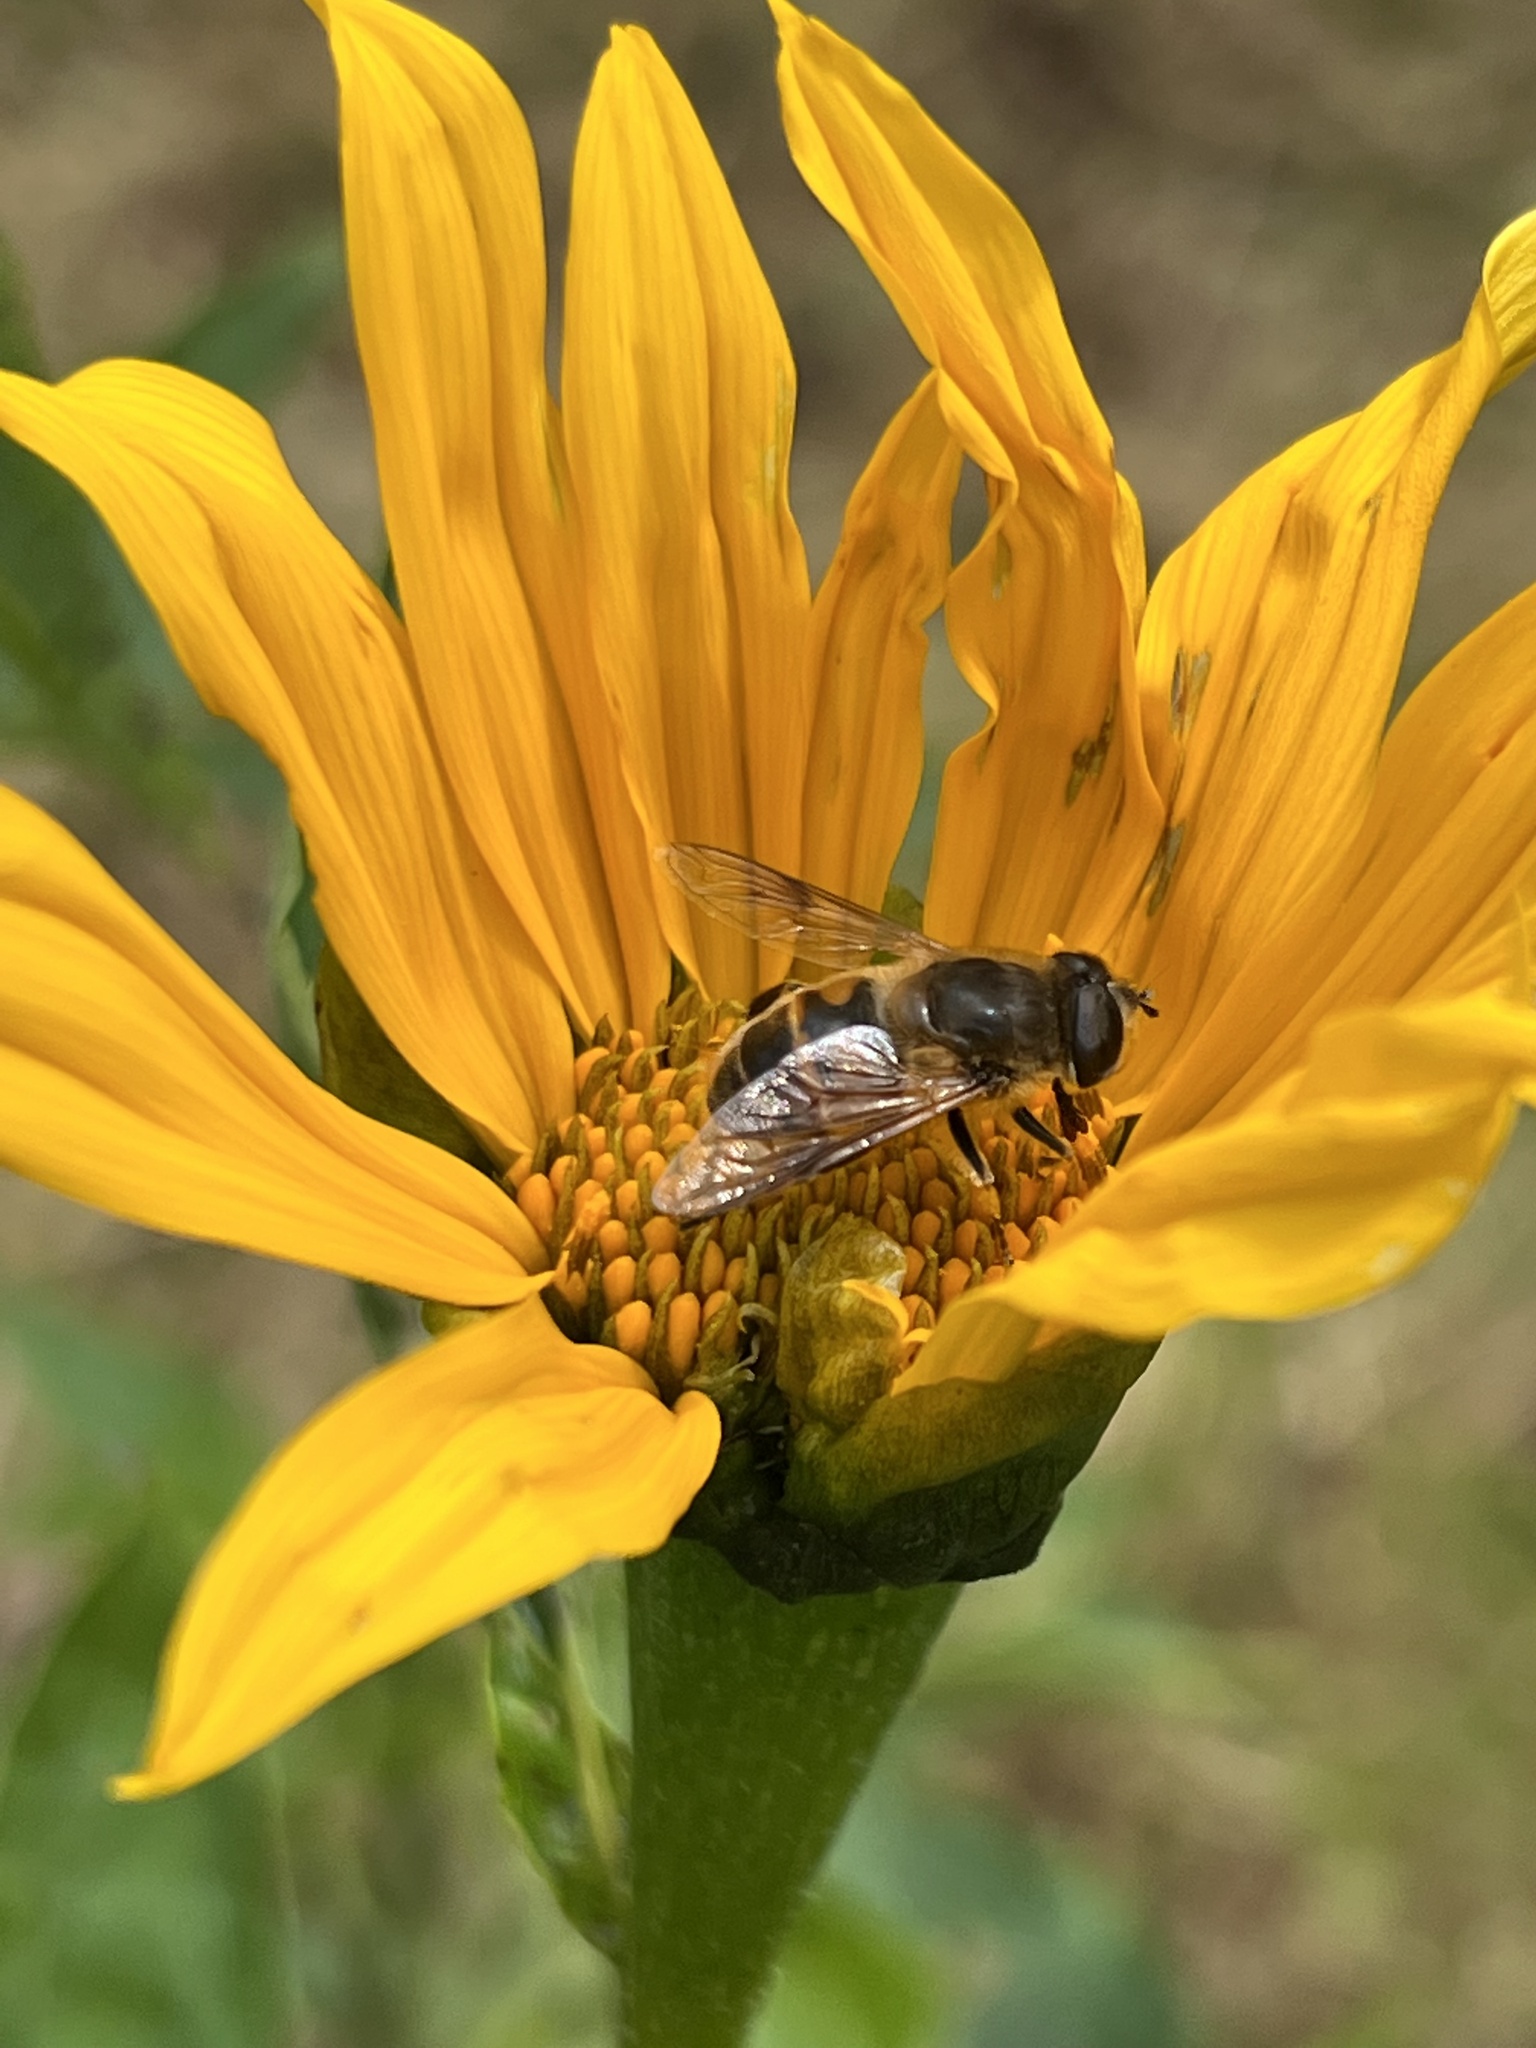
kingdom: Animalia
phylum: Arthropoda
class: Insecta
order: Diptera
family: Syrphidae
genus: Eristalis
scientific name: Eristalis tenax
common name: Drone fly
